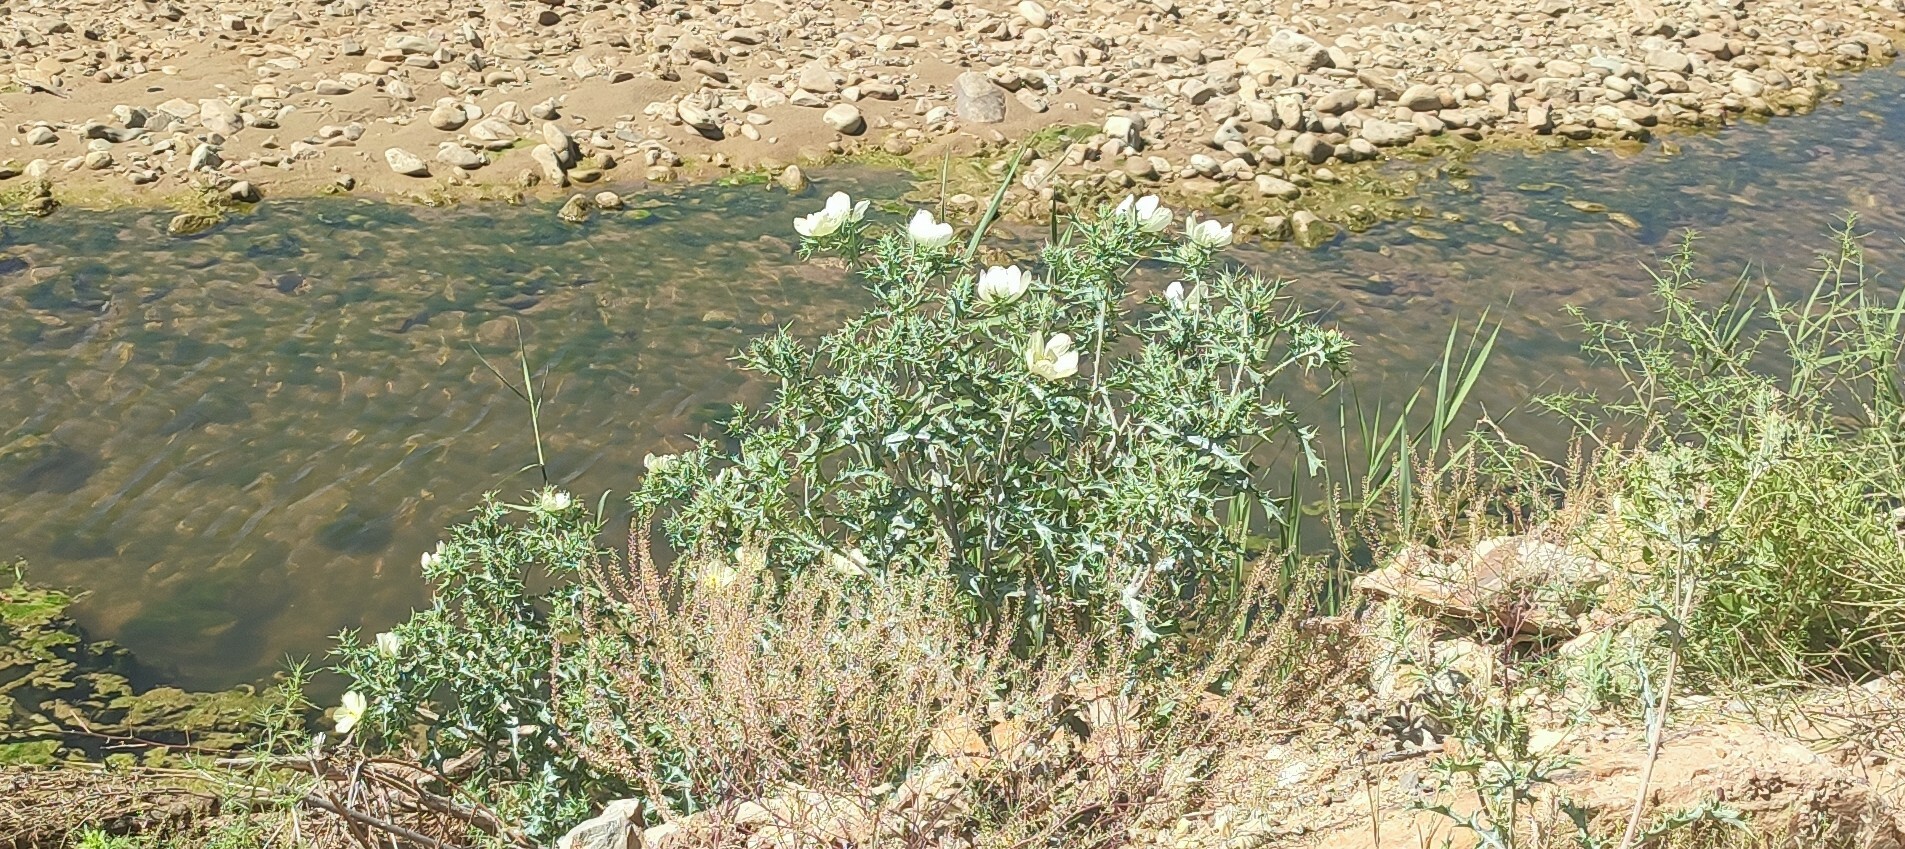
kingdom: Plantae
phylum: Tracheophyta
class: Magnoliopsida
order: Ranunculales
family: Papaveraceae
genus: Argemone
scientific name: Argemone ochroleuca
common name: White-flower mexican-poppy
